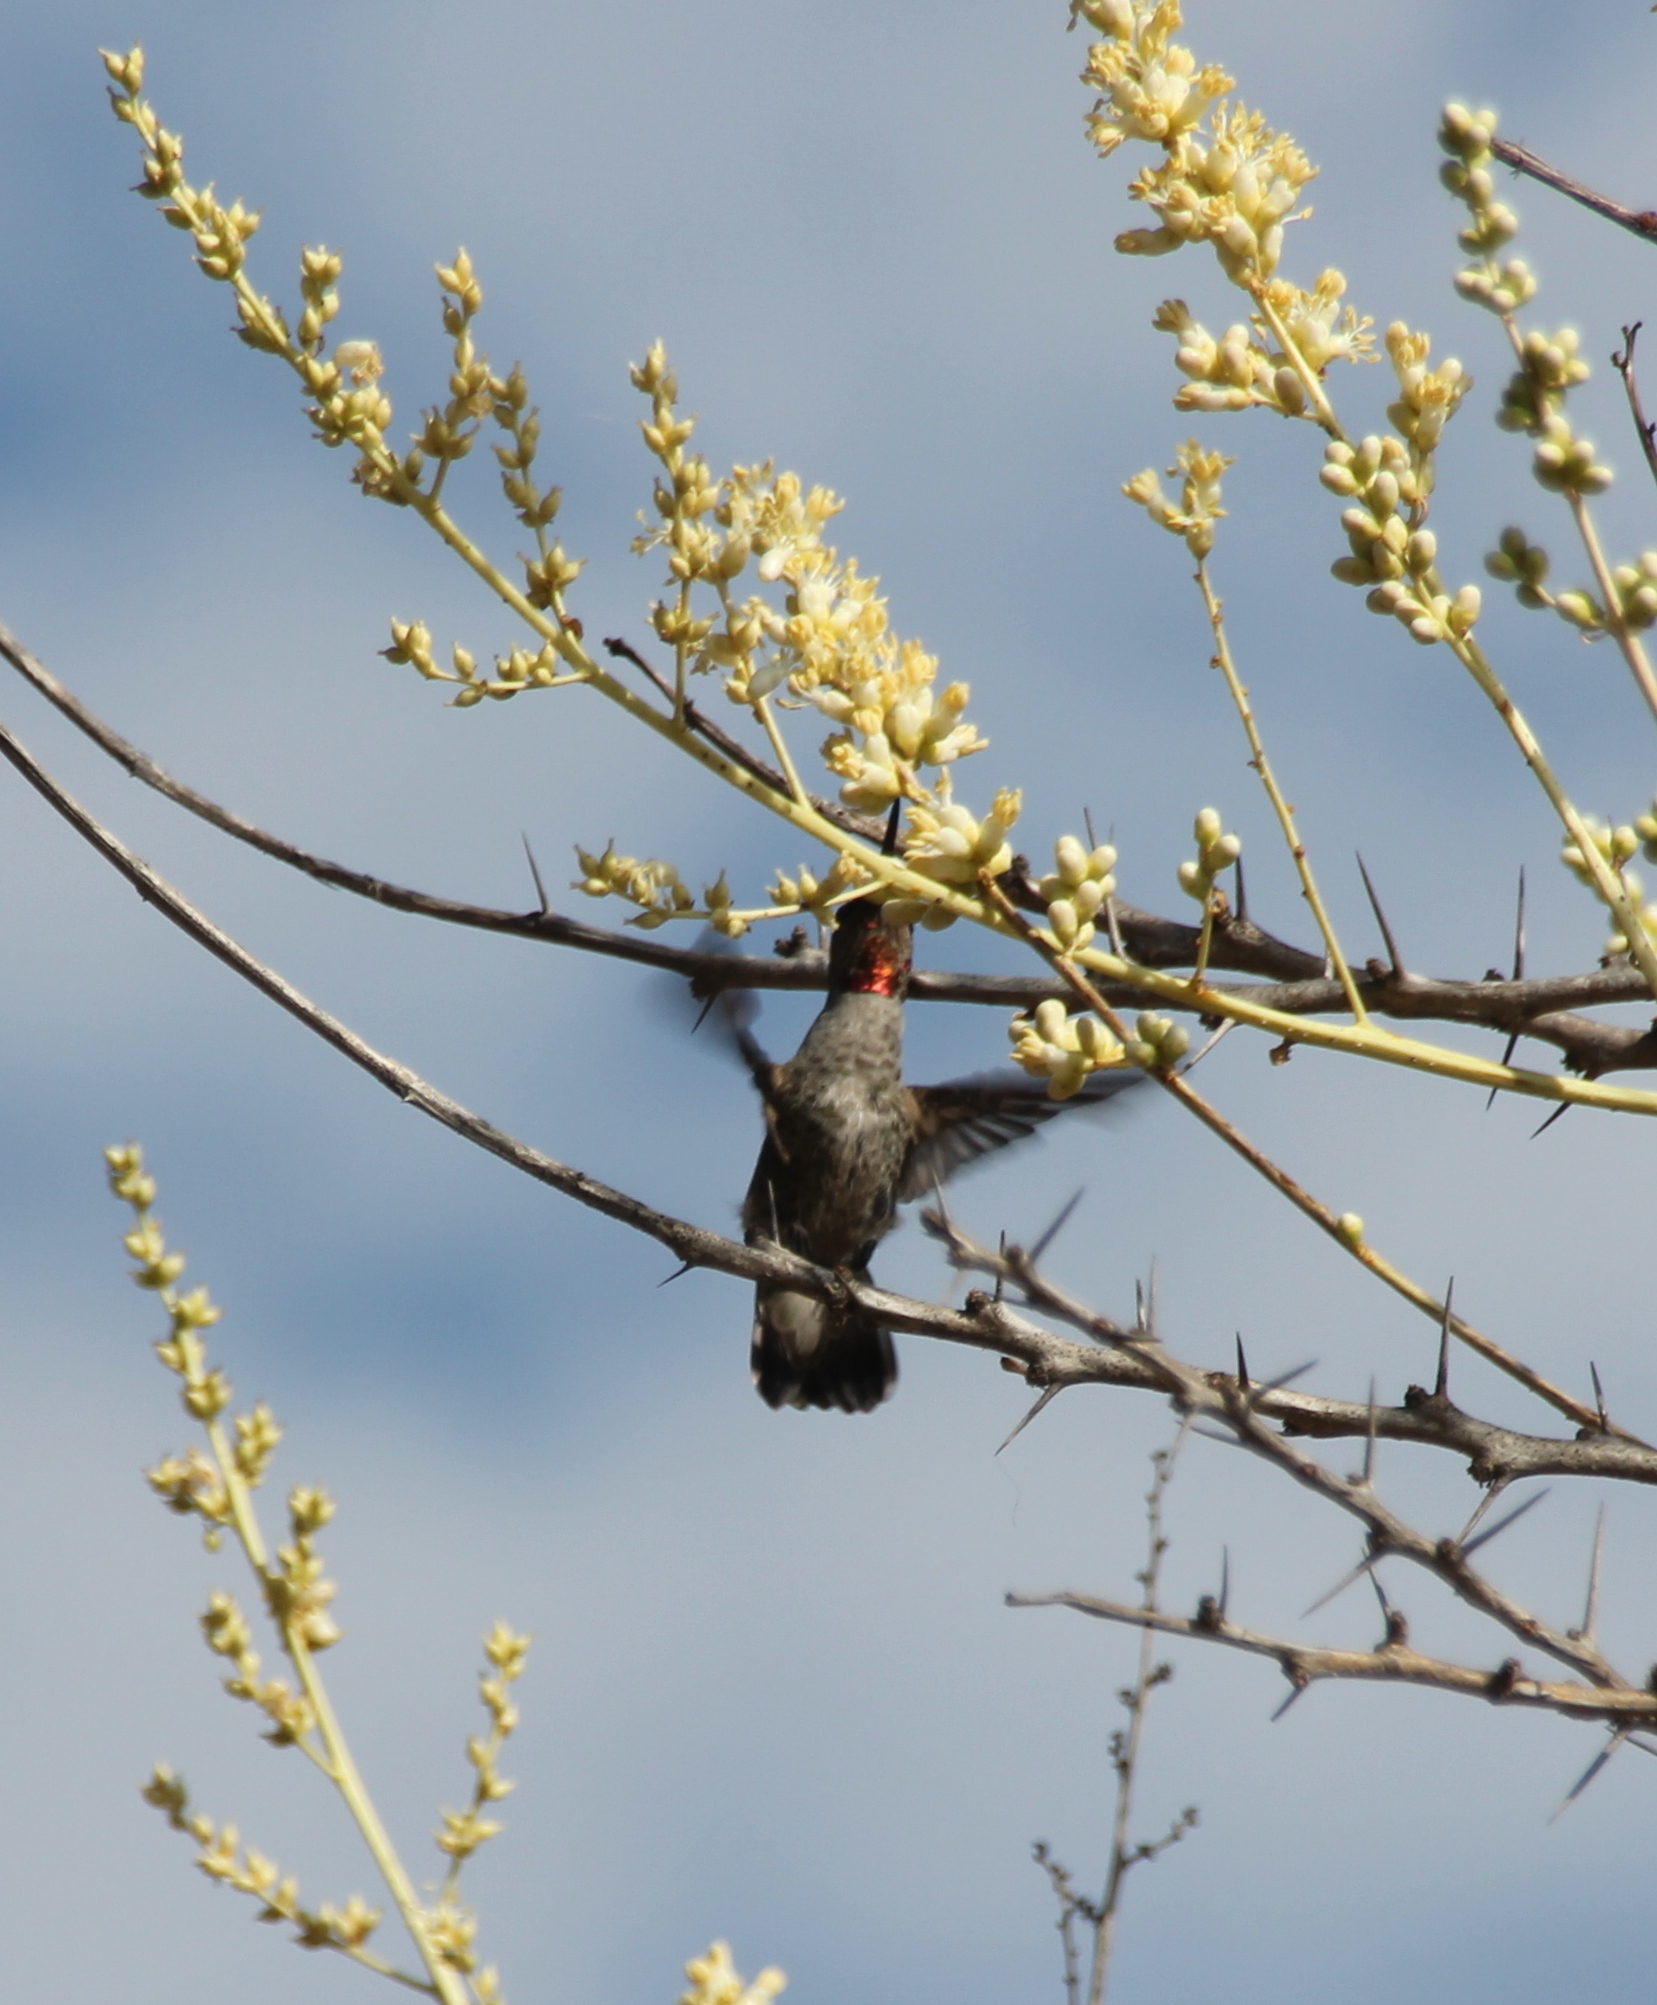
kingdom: Animalia
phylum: Chordata
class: Aves
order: Apodiformes
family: Trochilidae
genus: Calypte
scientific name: Calypte anna
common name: Anna's hummingbird
